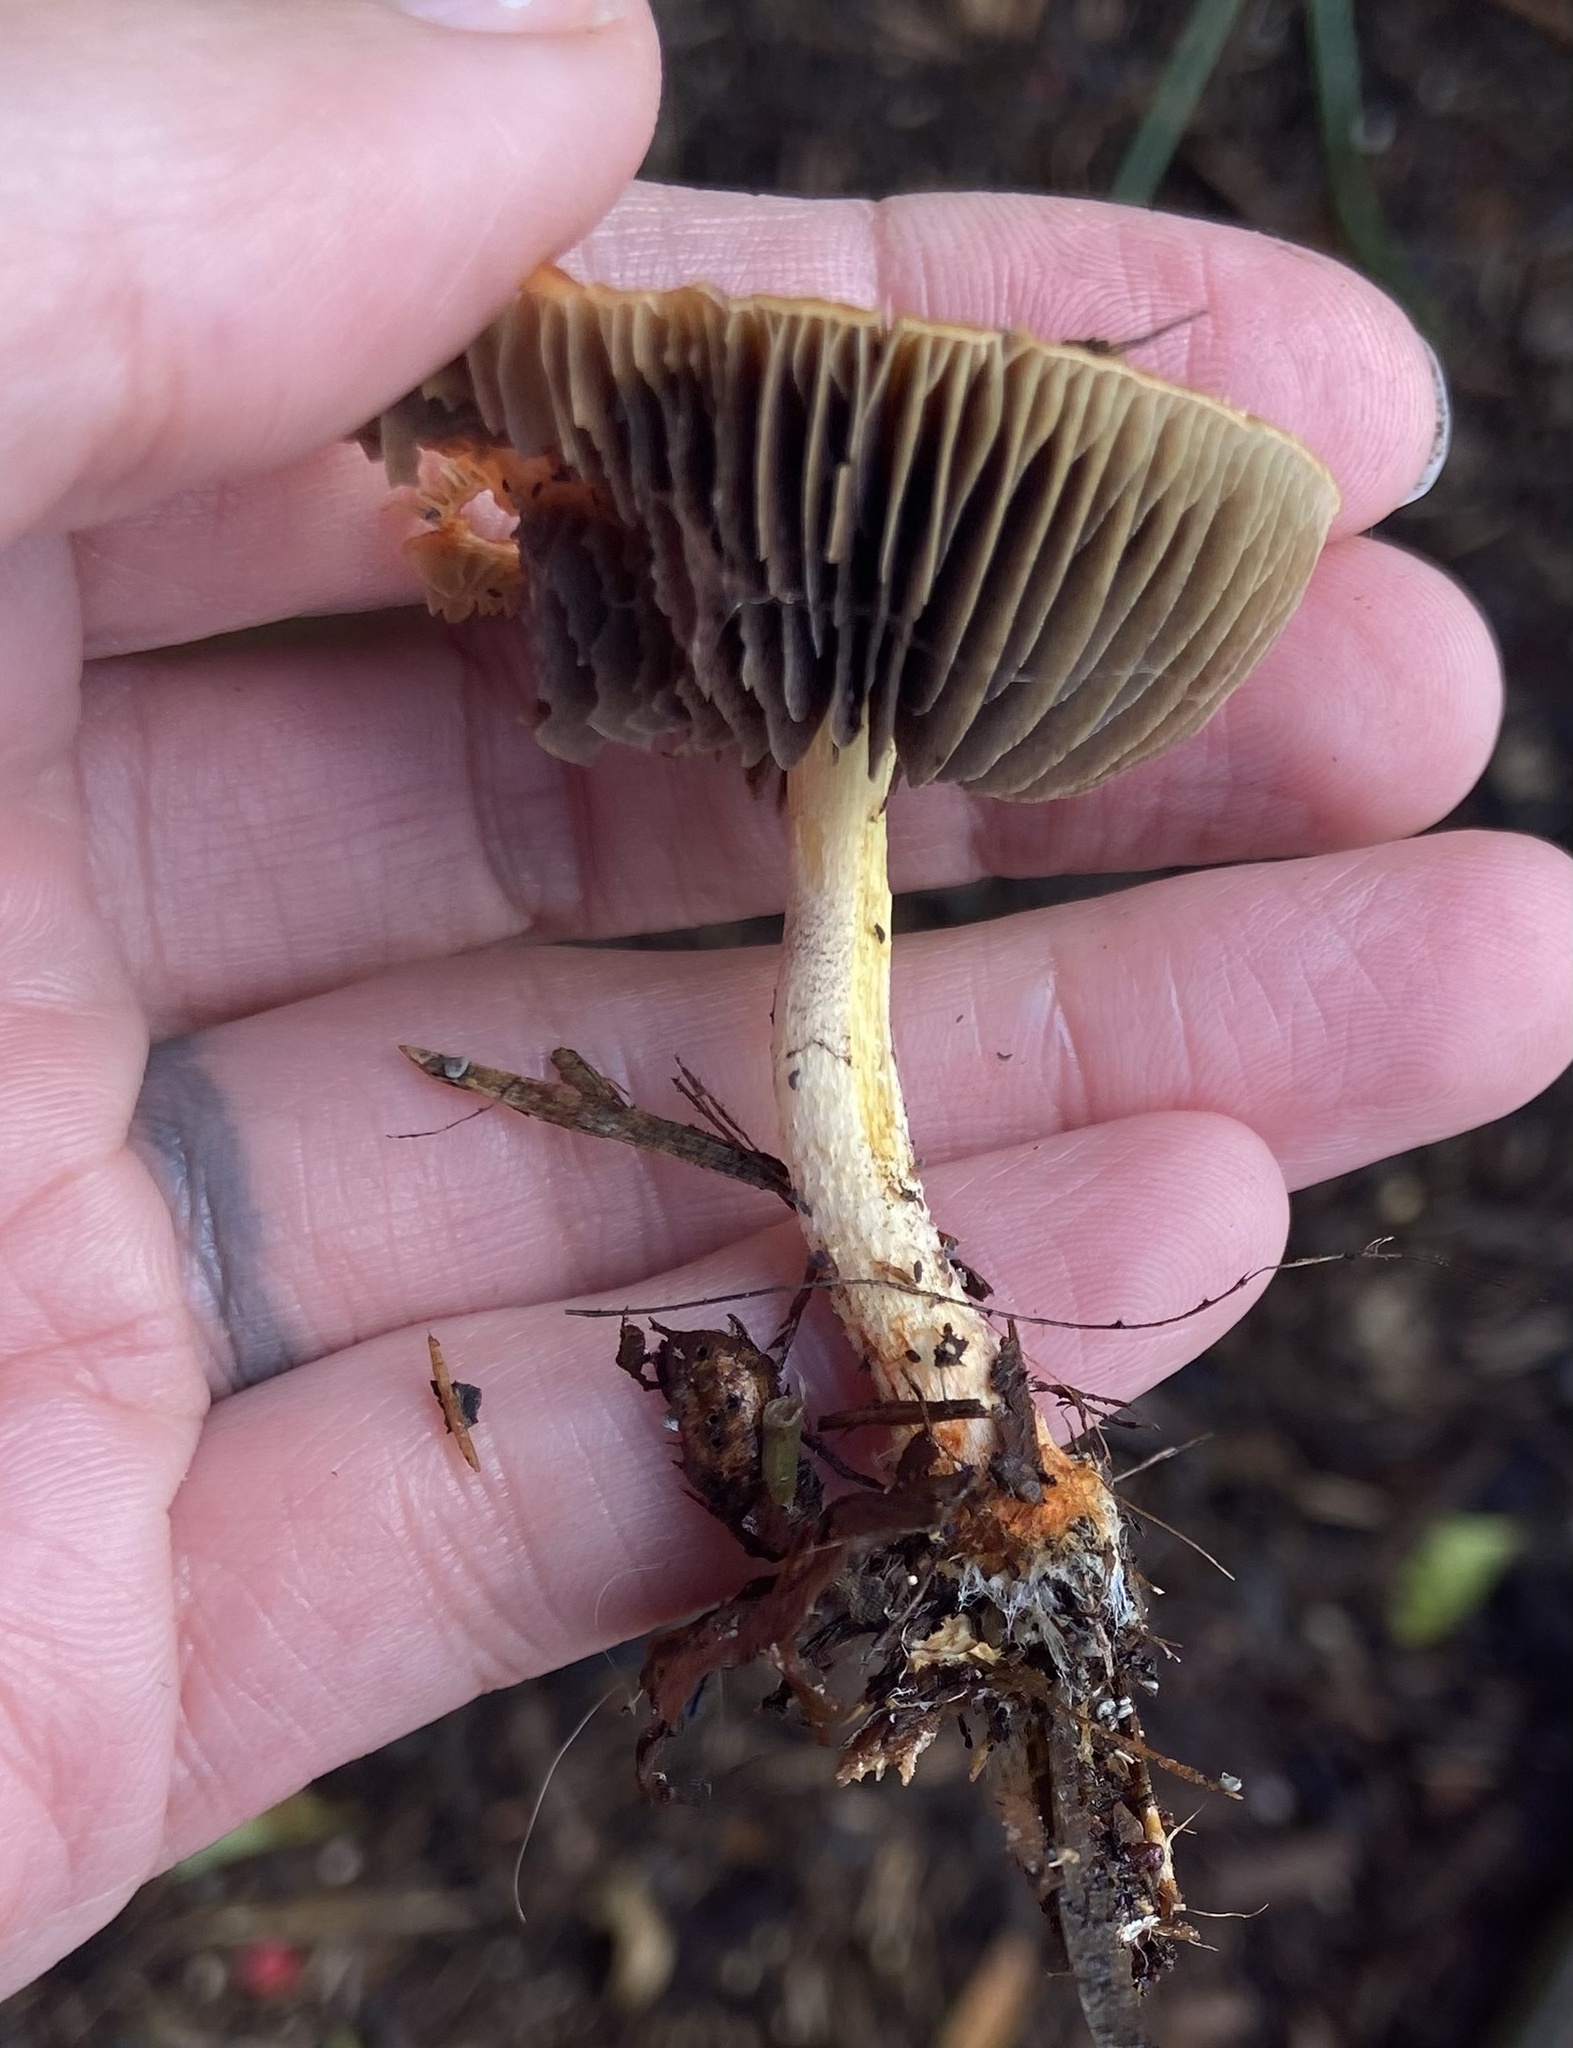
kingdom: Fungi
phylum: Basidiomycota
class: Agaricomycetes
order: Agaricales
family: Strophariaceae
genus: Leratiomyces
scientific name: Leratiomyces ceres
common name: Redlead roundhead
